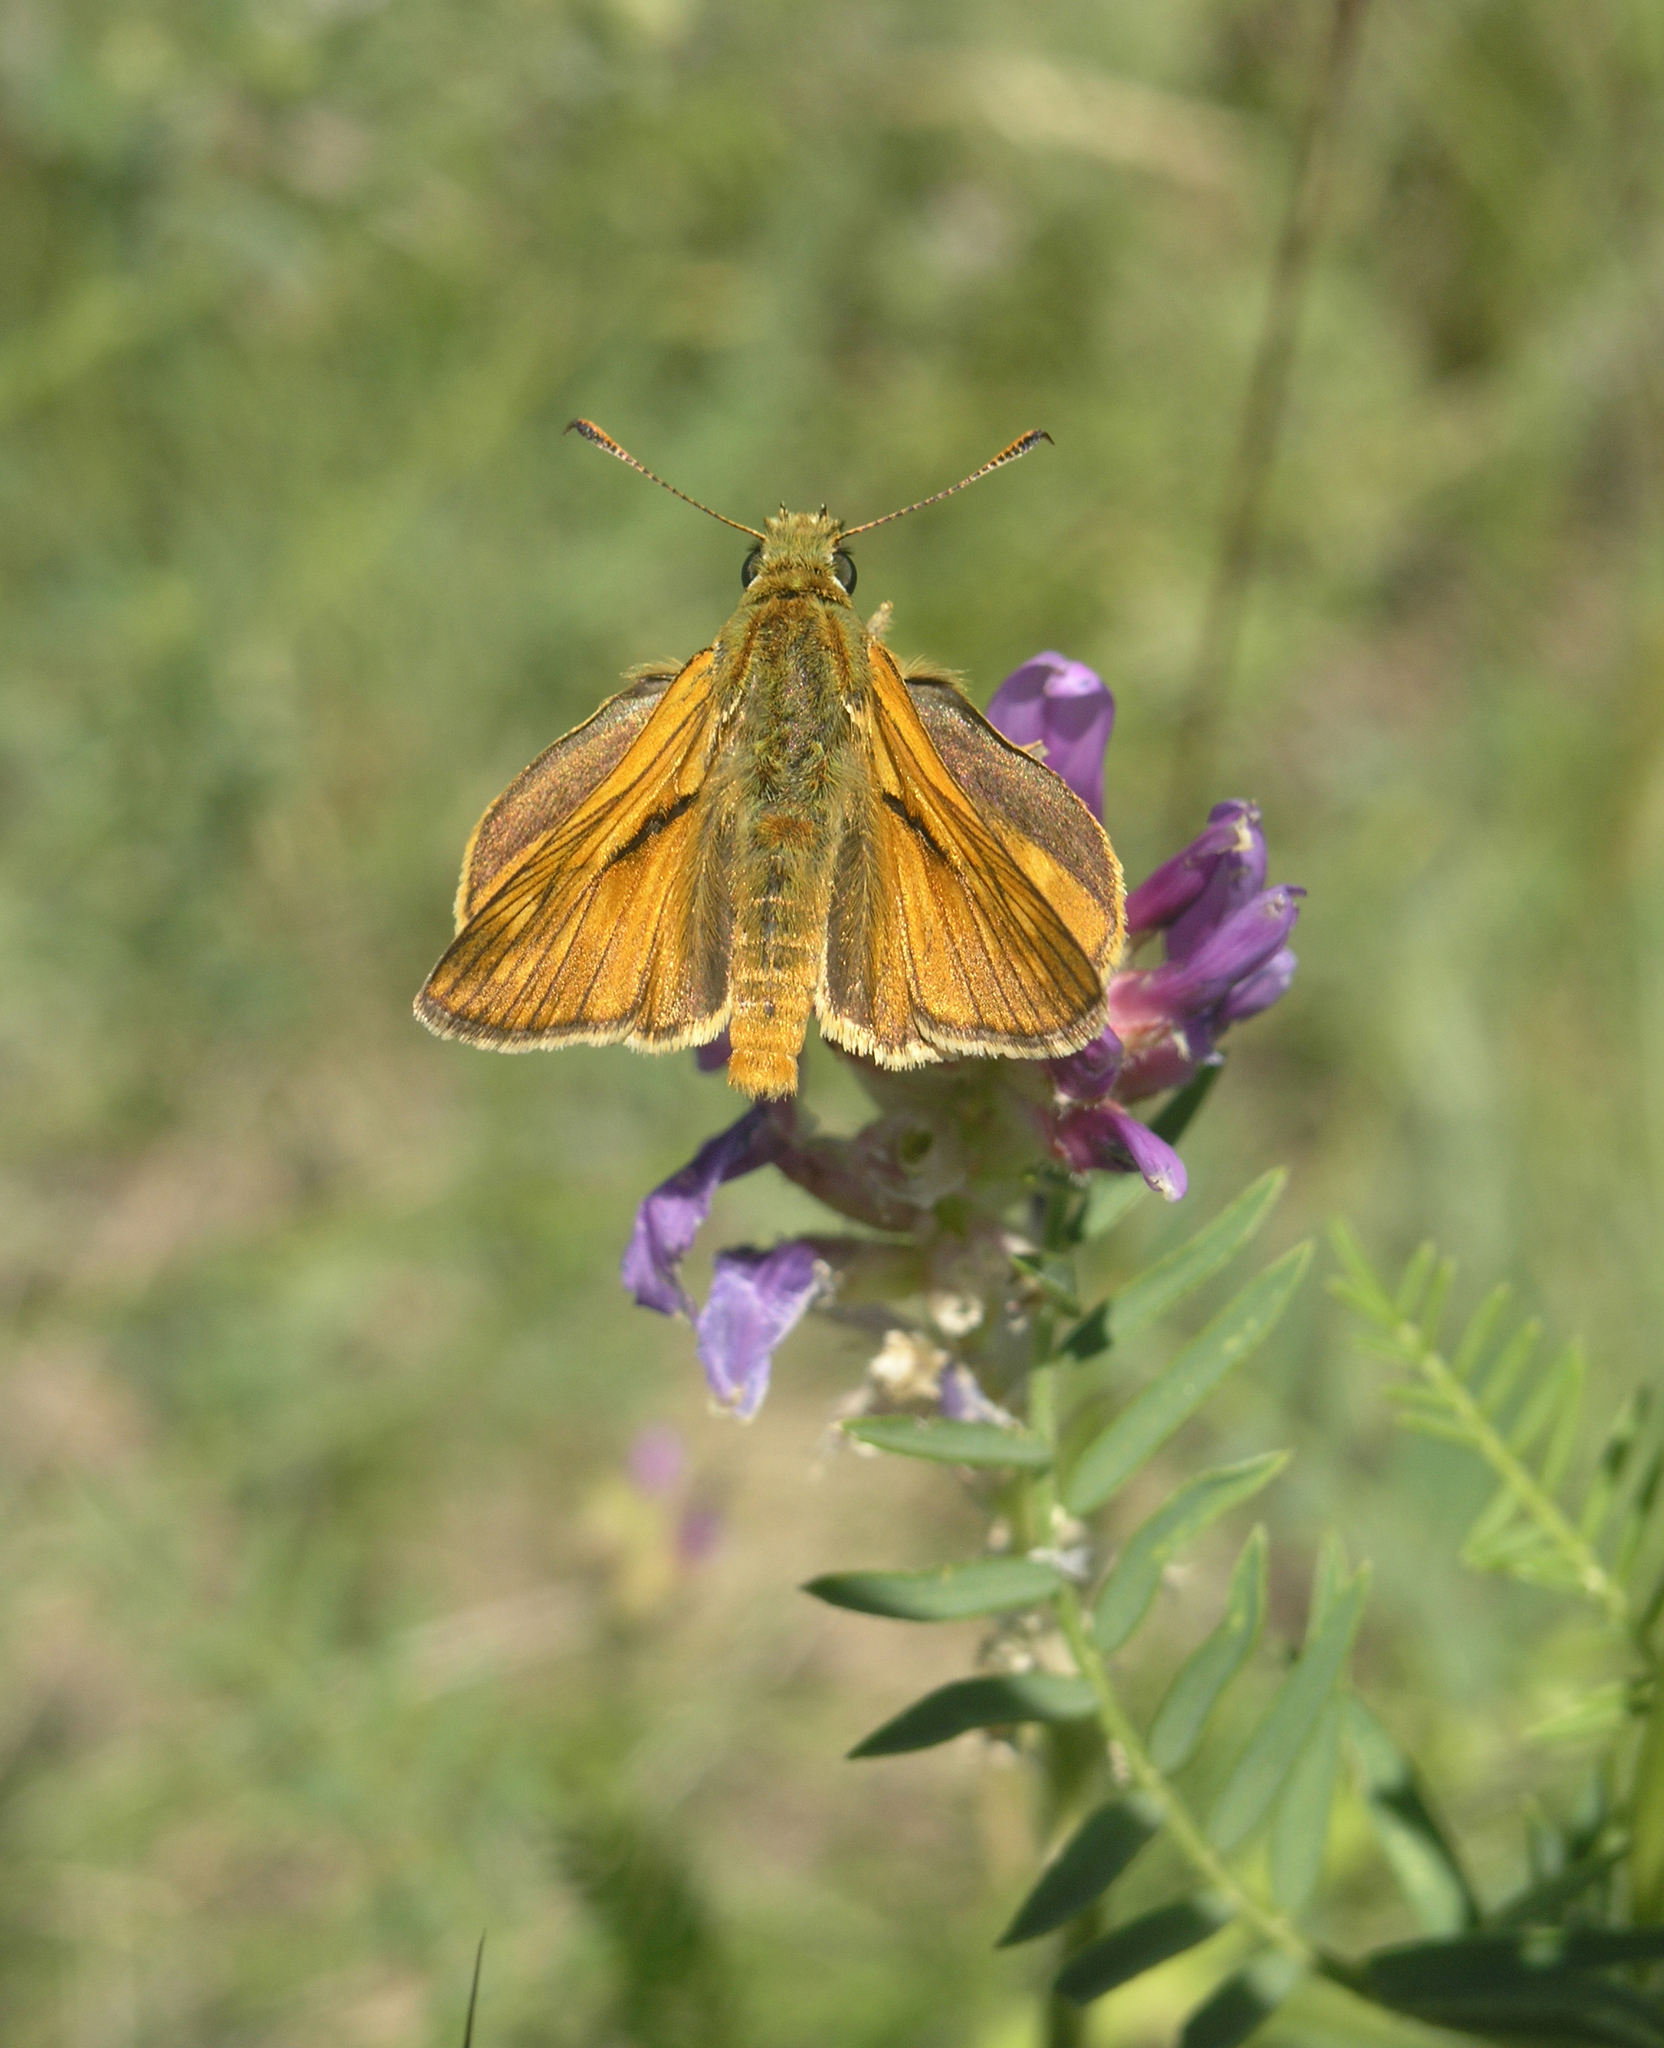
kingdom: Animalia
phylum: Arthropoda
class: Insecta
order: Lepidoptera
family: Hesperiidae
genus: Ochlodes
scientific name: Ochlodes venata
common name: Large skipper
